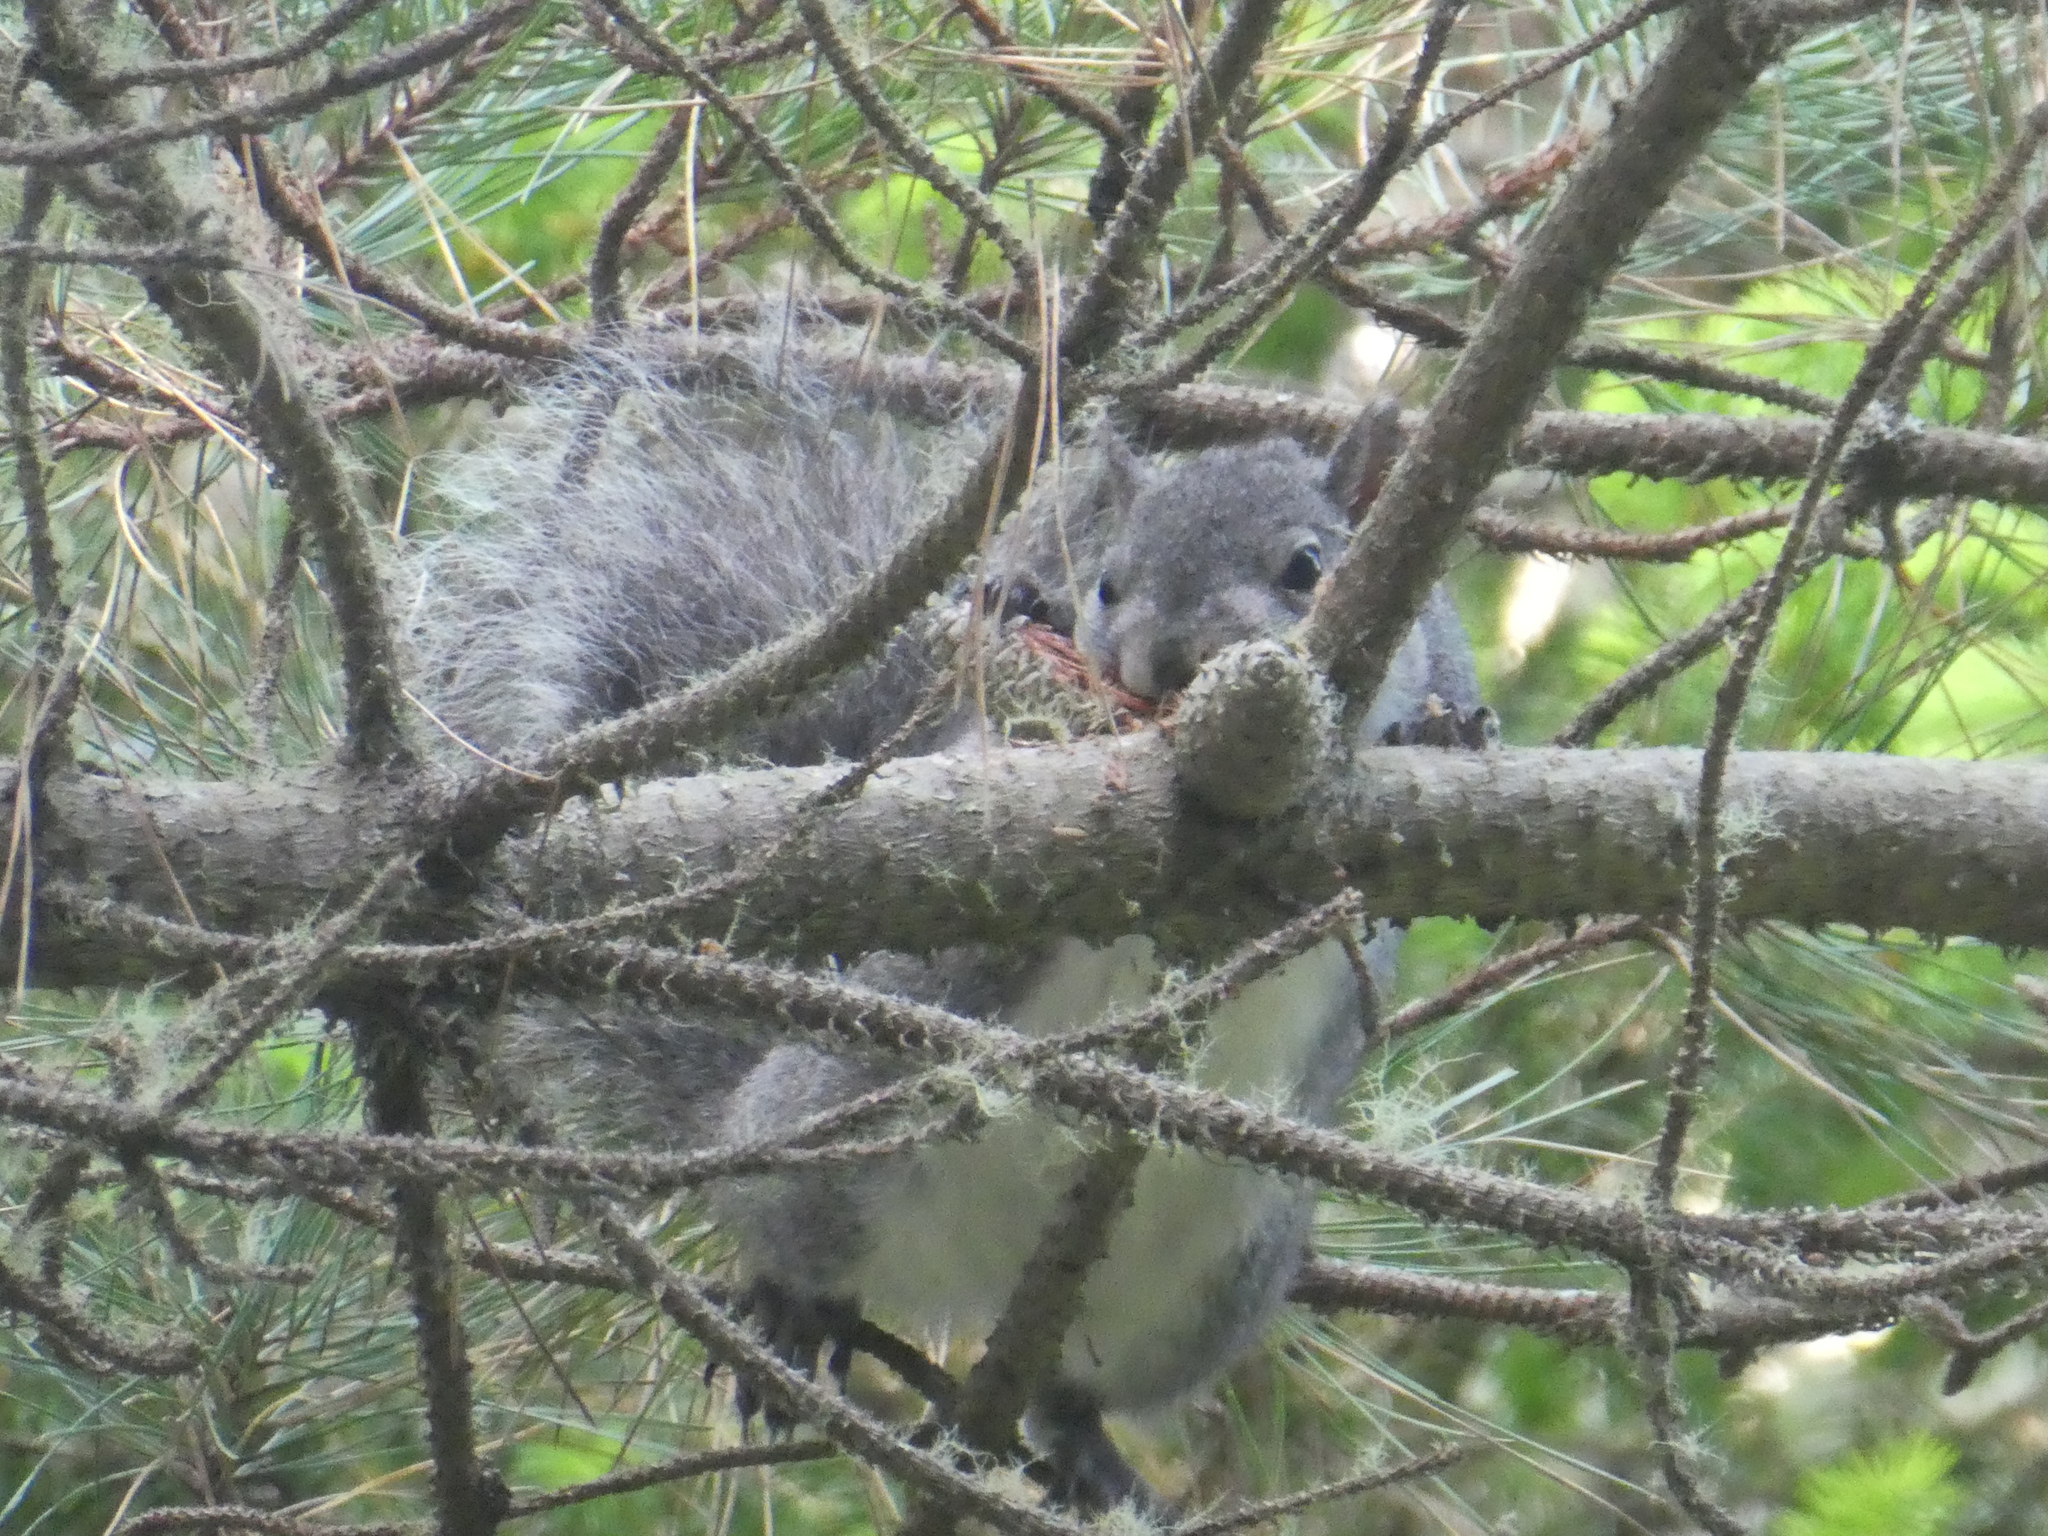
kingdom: Animalia
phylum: Chordata
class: Mammalia
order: Rodentia
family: Sciuridae
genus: Sciurus
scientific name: Sciurus griseus
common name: Western gray squirrel
